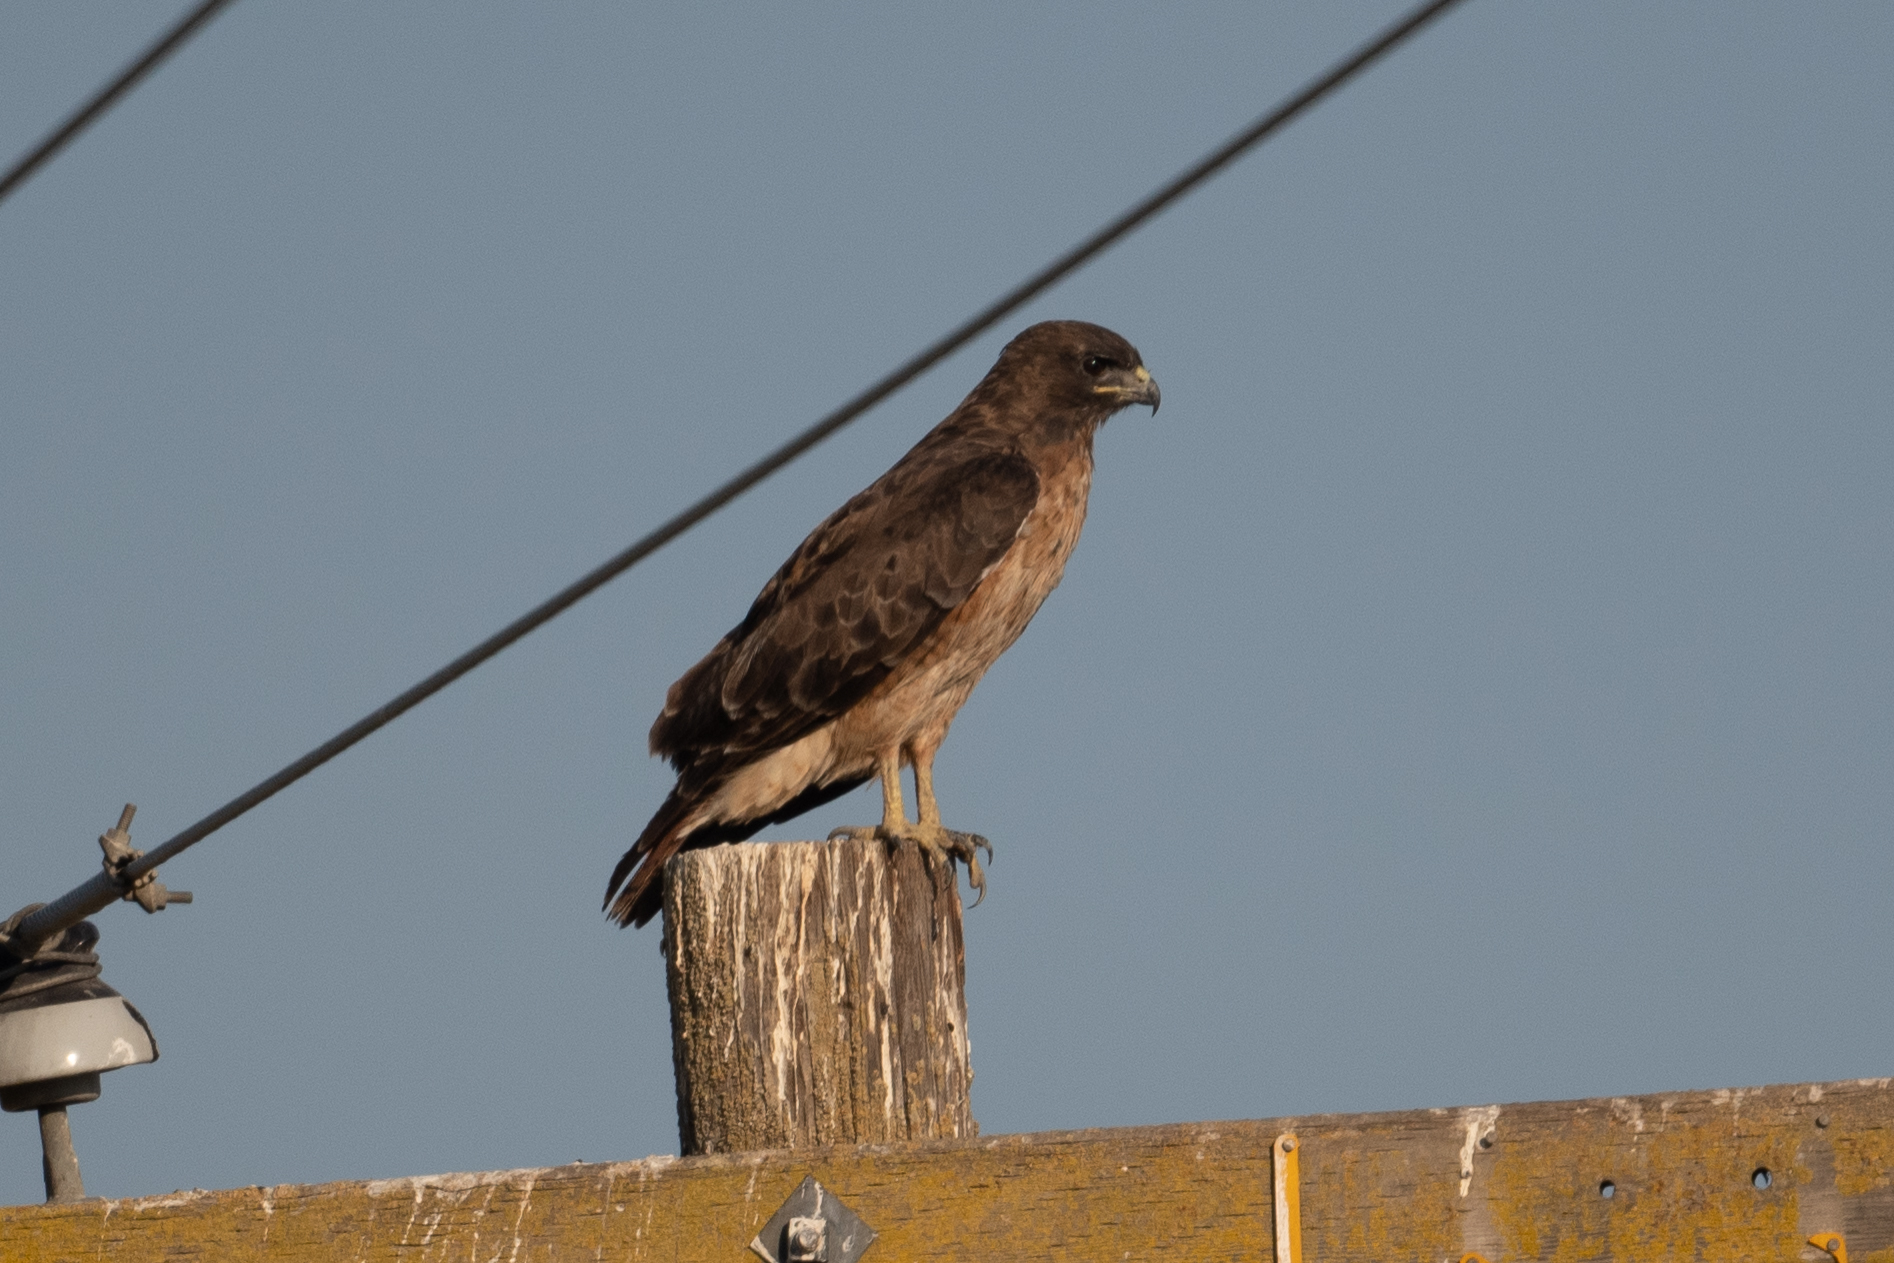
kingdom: Animalia
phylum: Chordata
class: Aves
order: Accipitriformes
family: Accipitridae
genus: Buteo
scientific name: Buteo jamaicensis
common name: Red-tailed hawk
